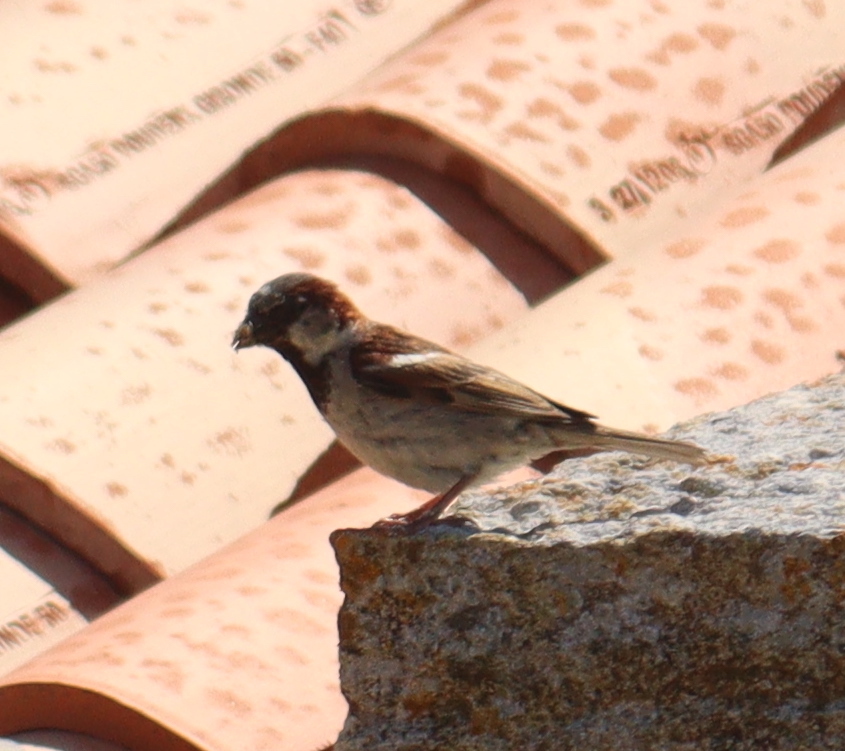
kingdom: Animalia
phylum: Chordata
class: Aves
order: Passeriformes
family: Passeridae
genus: Passer
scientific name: Passer domesticus
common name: House sparrow
